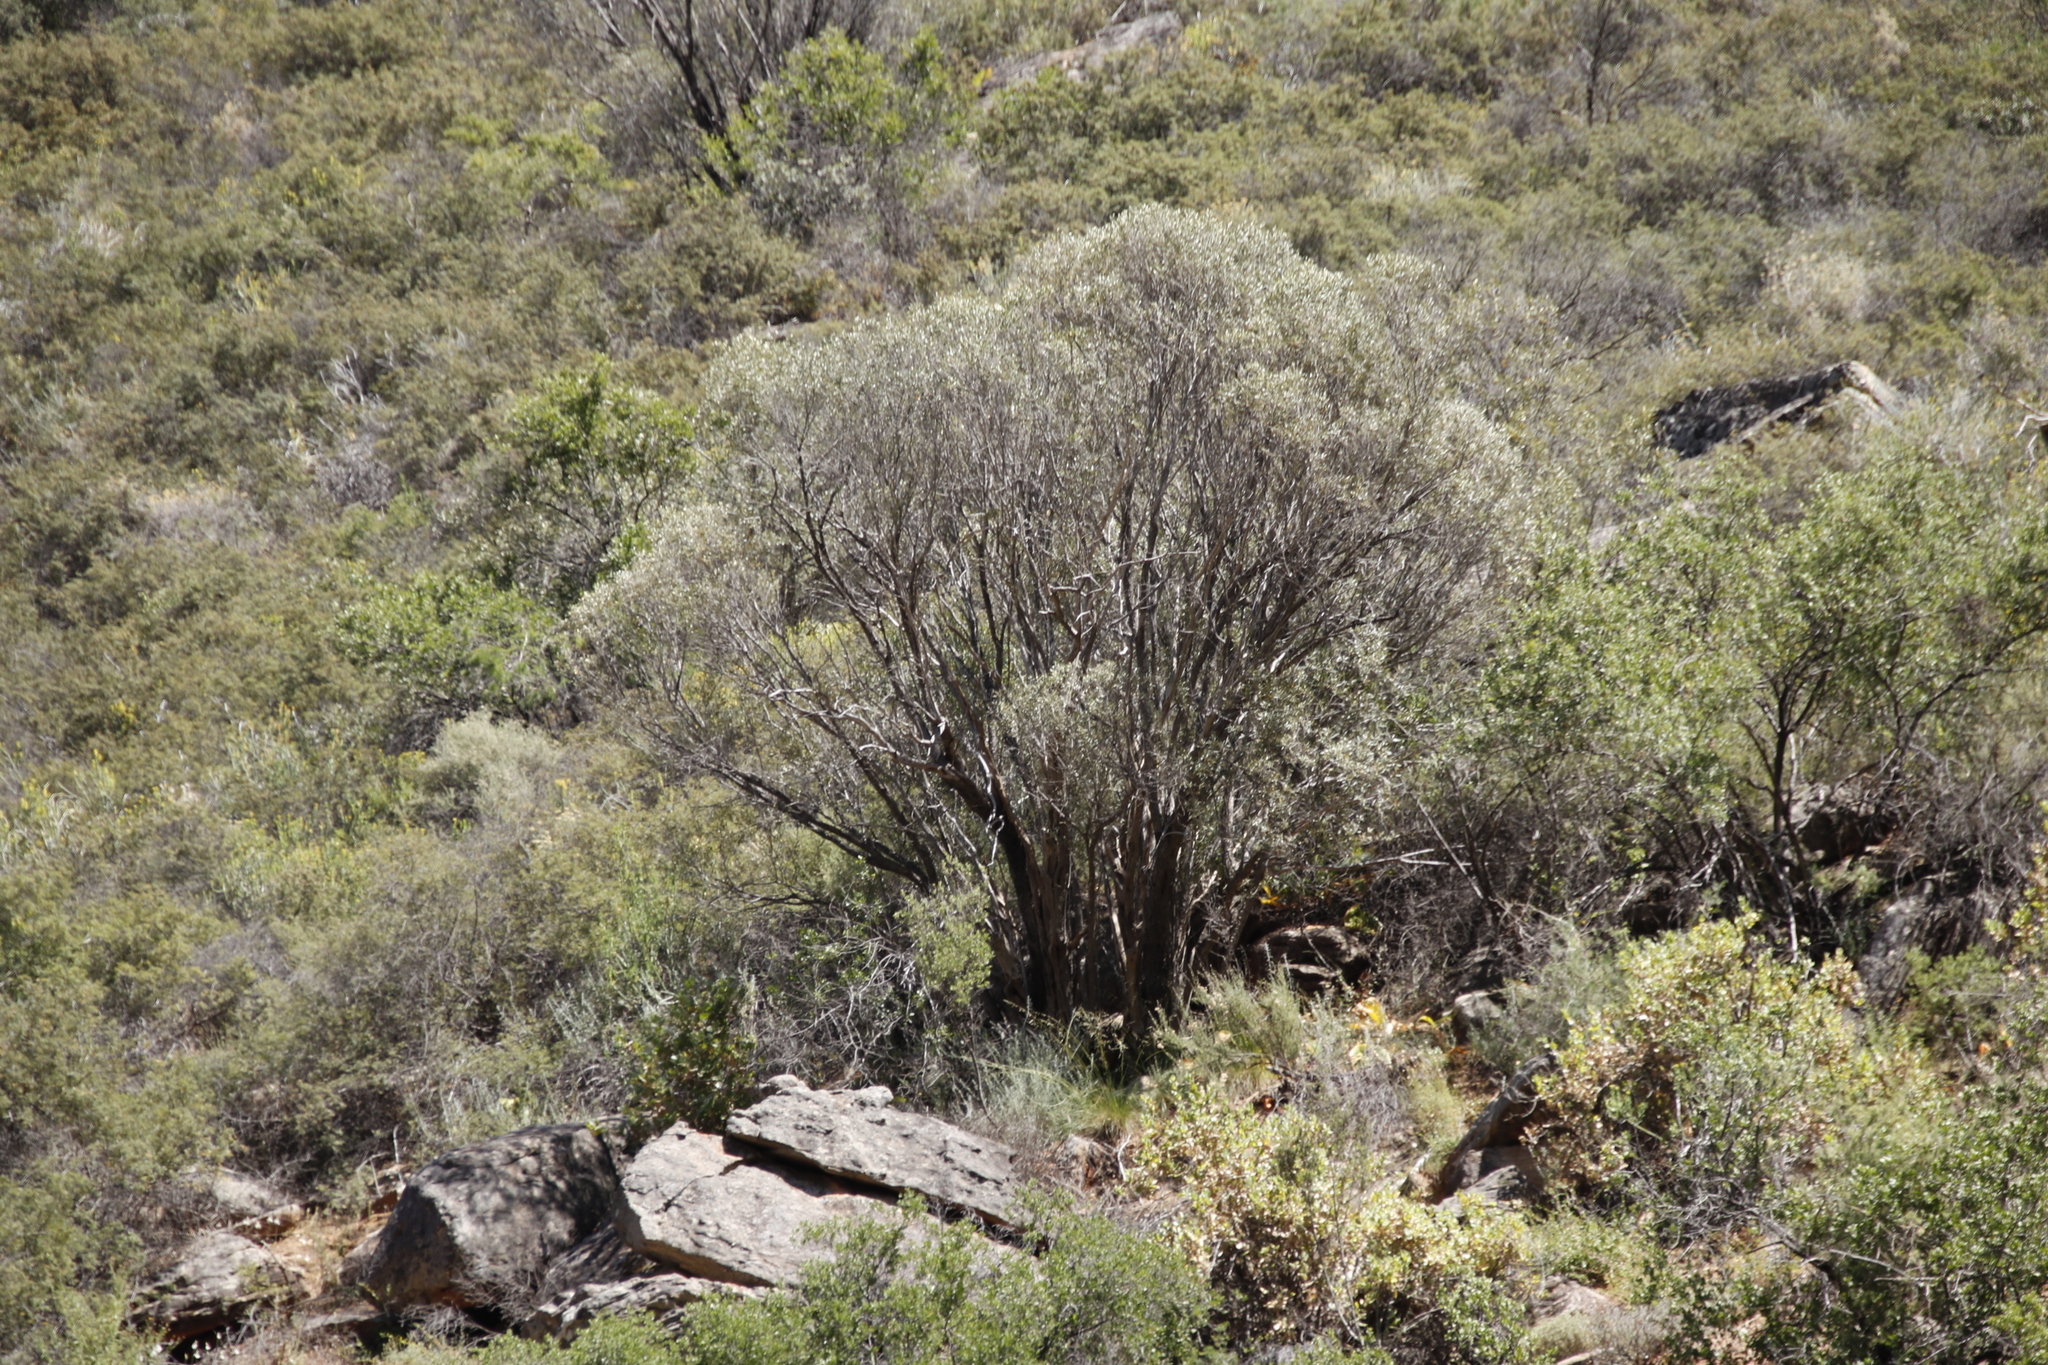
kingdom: Plantae
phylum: Tracheophyta
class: Magnoliopsida
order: Lamiales
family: Oleaceae
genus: Olea
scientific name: Olea europaea
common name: Olive
